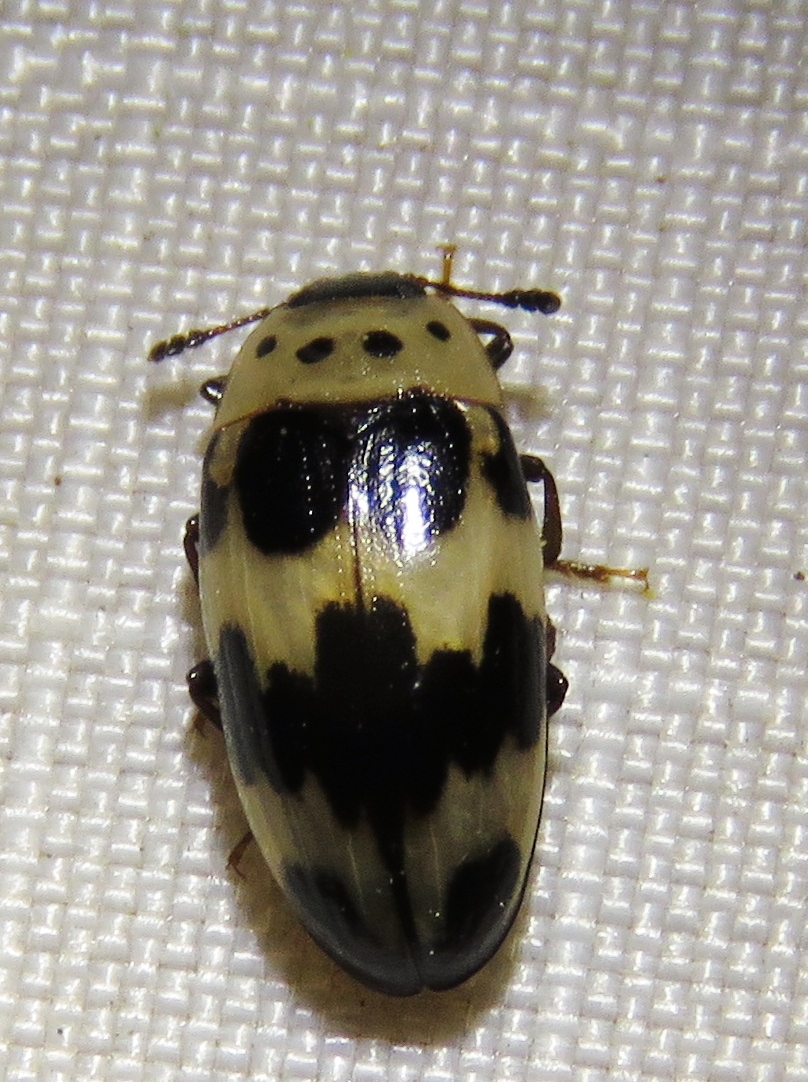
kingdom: Animalia
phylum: Arthropoda
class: Insecta
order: Coleoptera
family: Erotylidae
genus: Ischyrus
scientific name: Ischyrus quadripunctatus
